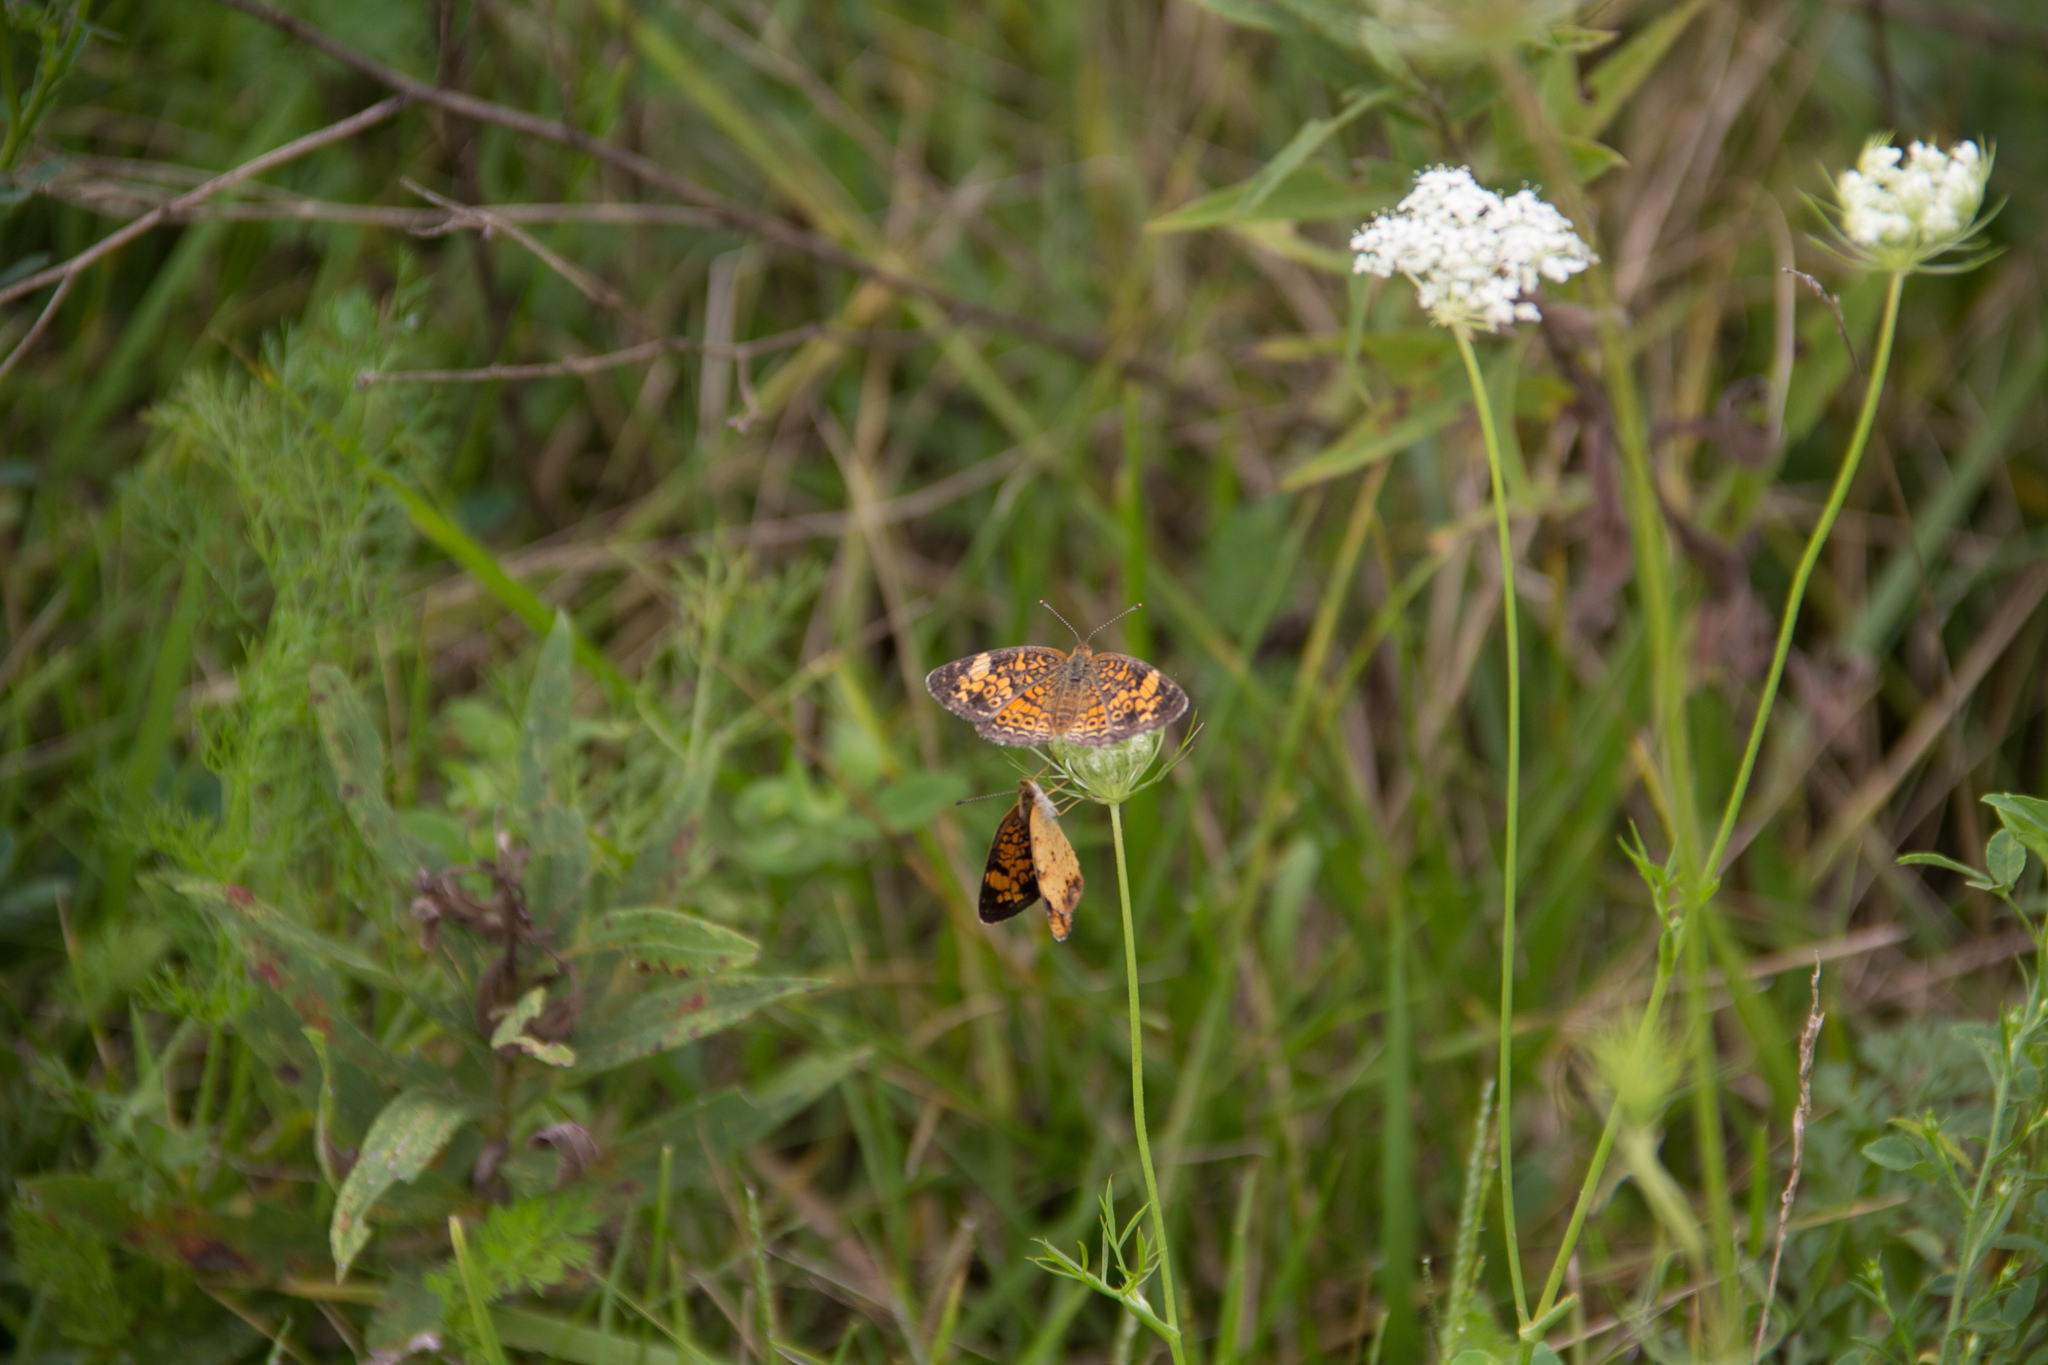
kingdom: Animalia
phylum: Arthropoda
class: Insecta
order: Lepidoptera
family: Nymphalidae
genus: Phyciodes
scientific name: Phyciodes tharos
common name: Pearl crescent
